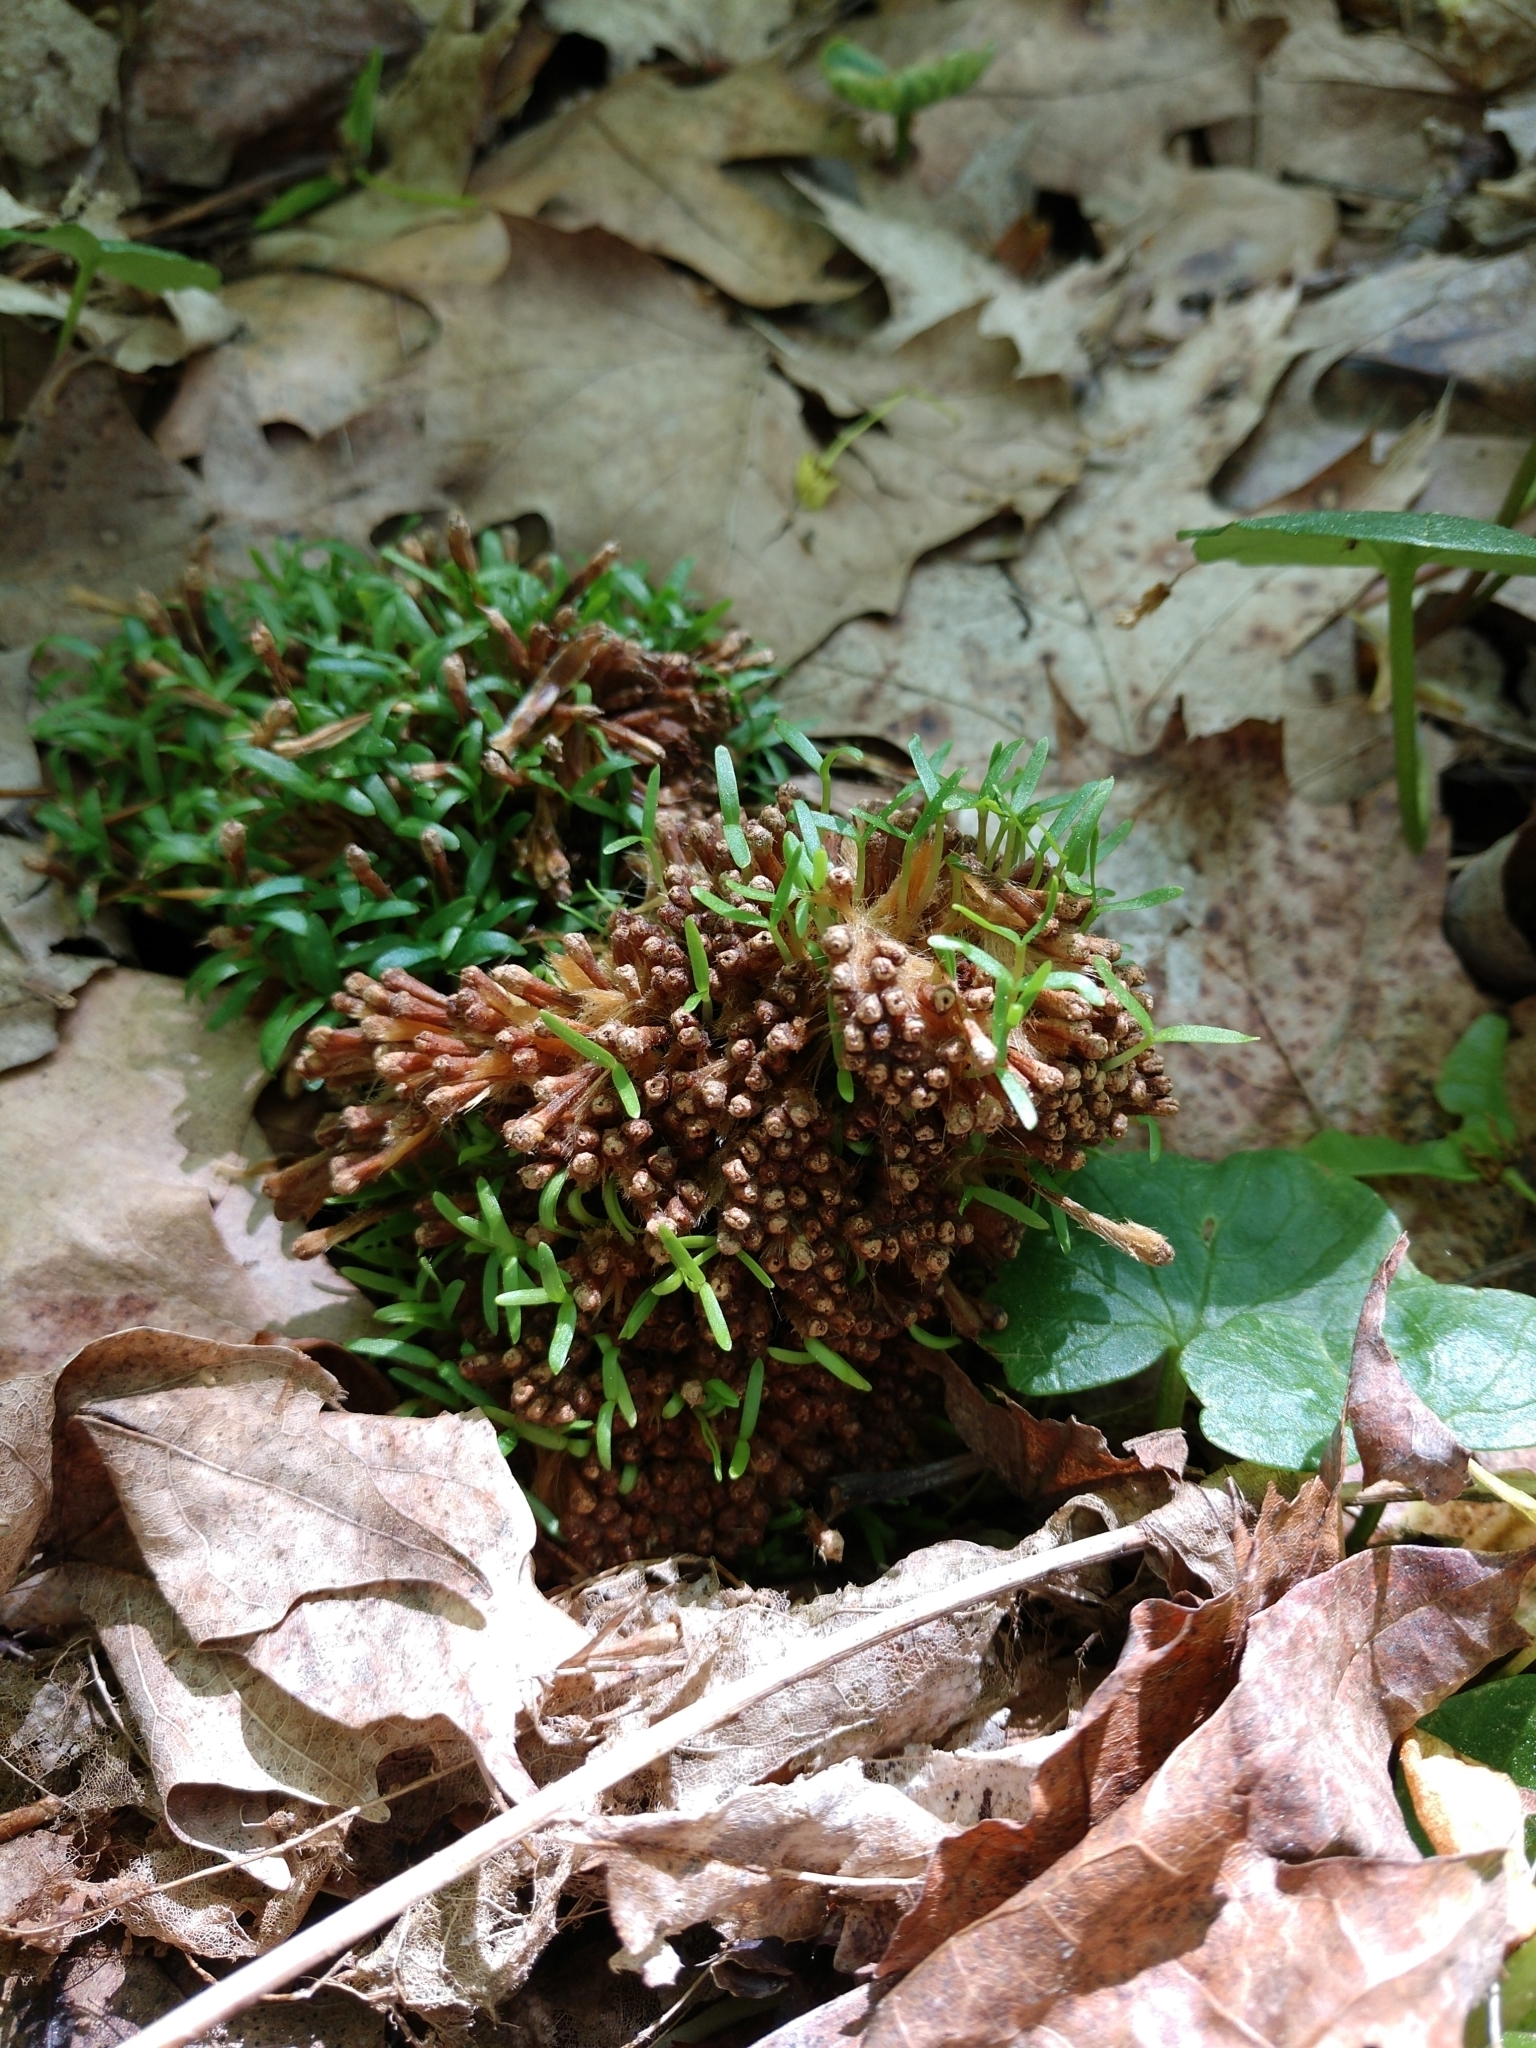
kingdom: Plantae
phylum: Tracheophyta
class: Magnoliopsida
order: Proteales
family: Platanaceae
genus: Platanus
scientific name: Platanus occidentalis
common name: American sycamore
